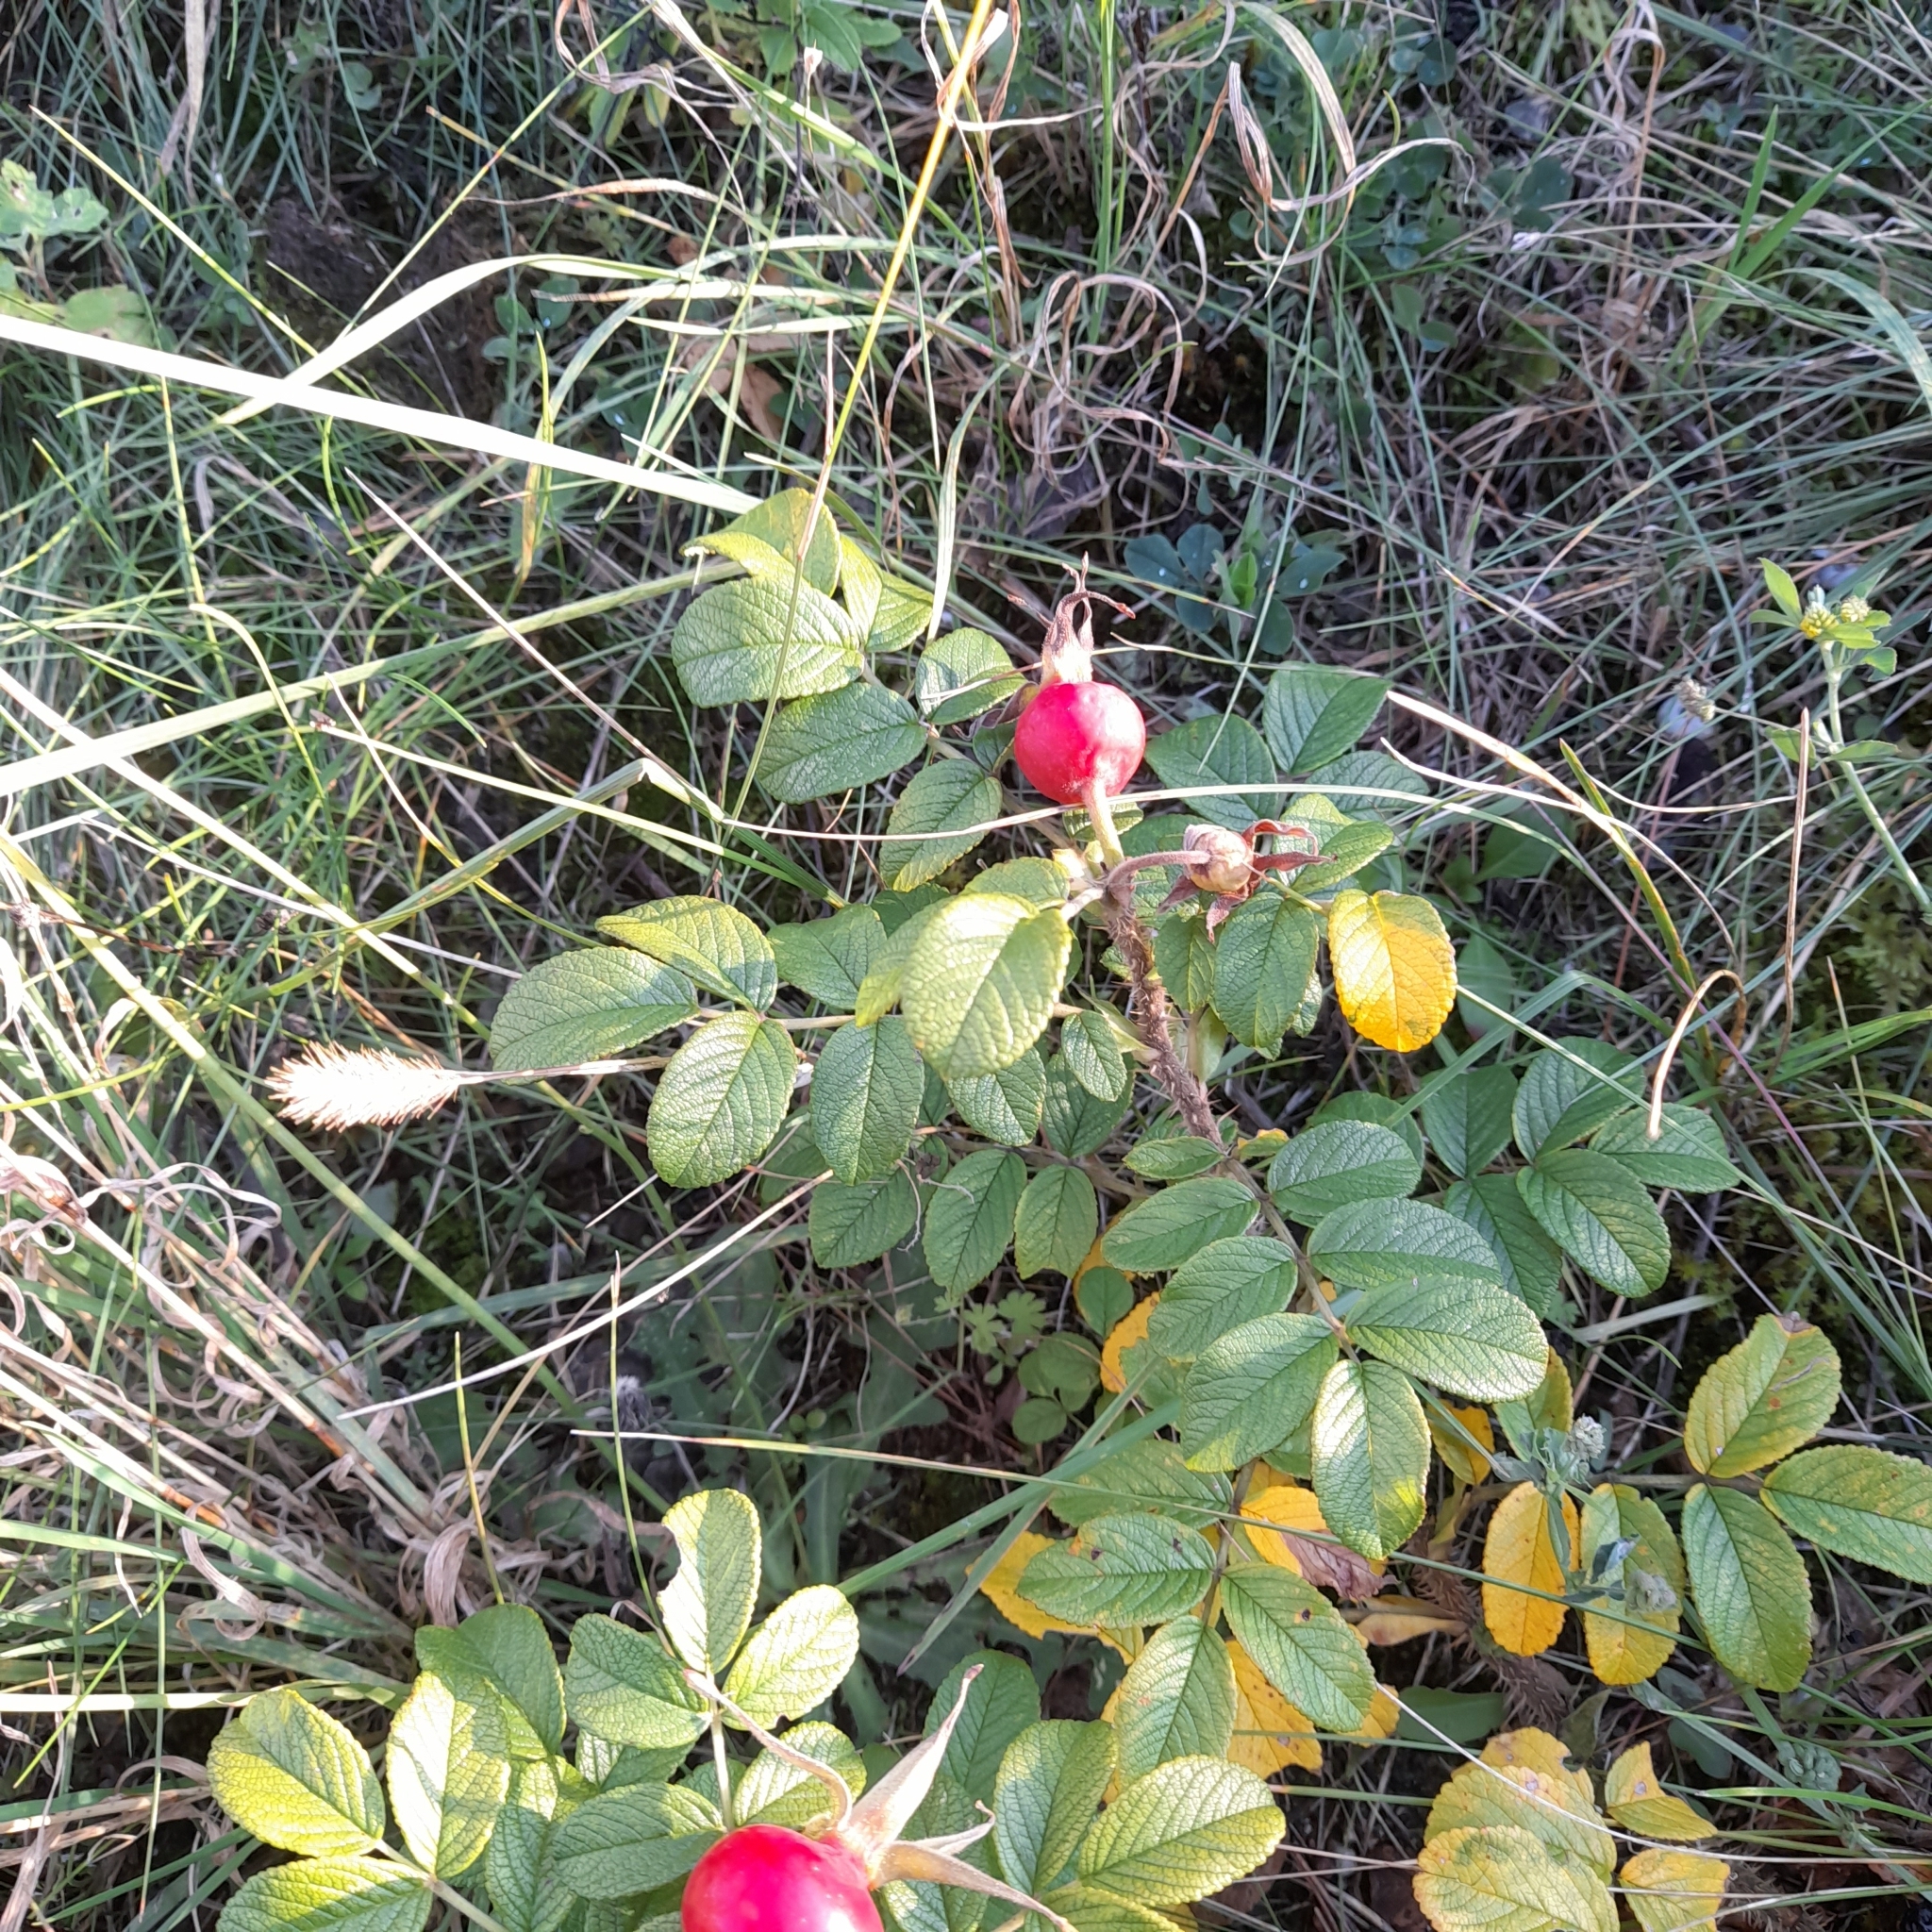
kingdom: Plantae
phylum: Tracheophyta
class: Magnoliopsida
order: Rosales
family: Rosaceae
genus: Rosa
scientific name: Rosa rugosa
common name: Japanese rose
